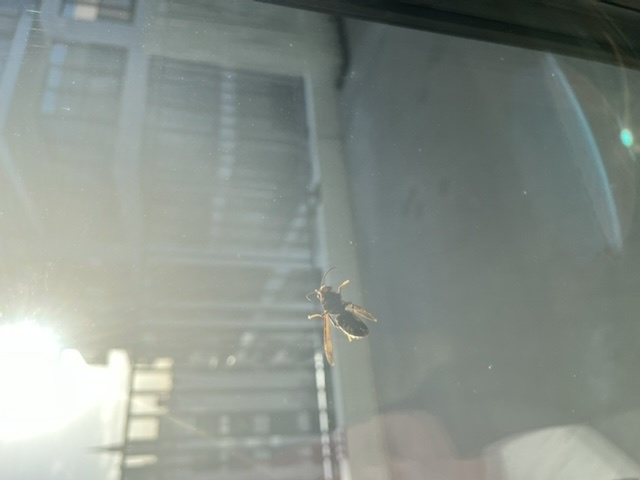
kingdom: Animalia
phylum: Arthropoda
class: Insecta
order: Hymenoptera
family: Vespidae
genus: Vespa
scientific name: Vespa velutina
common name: Asian hornet
